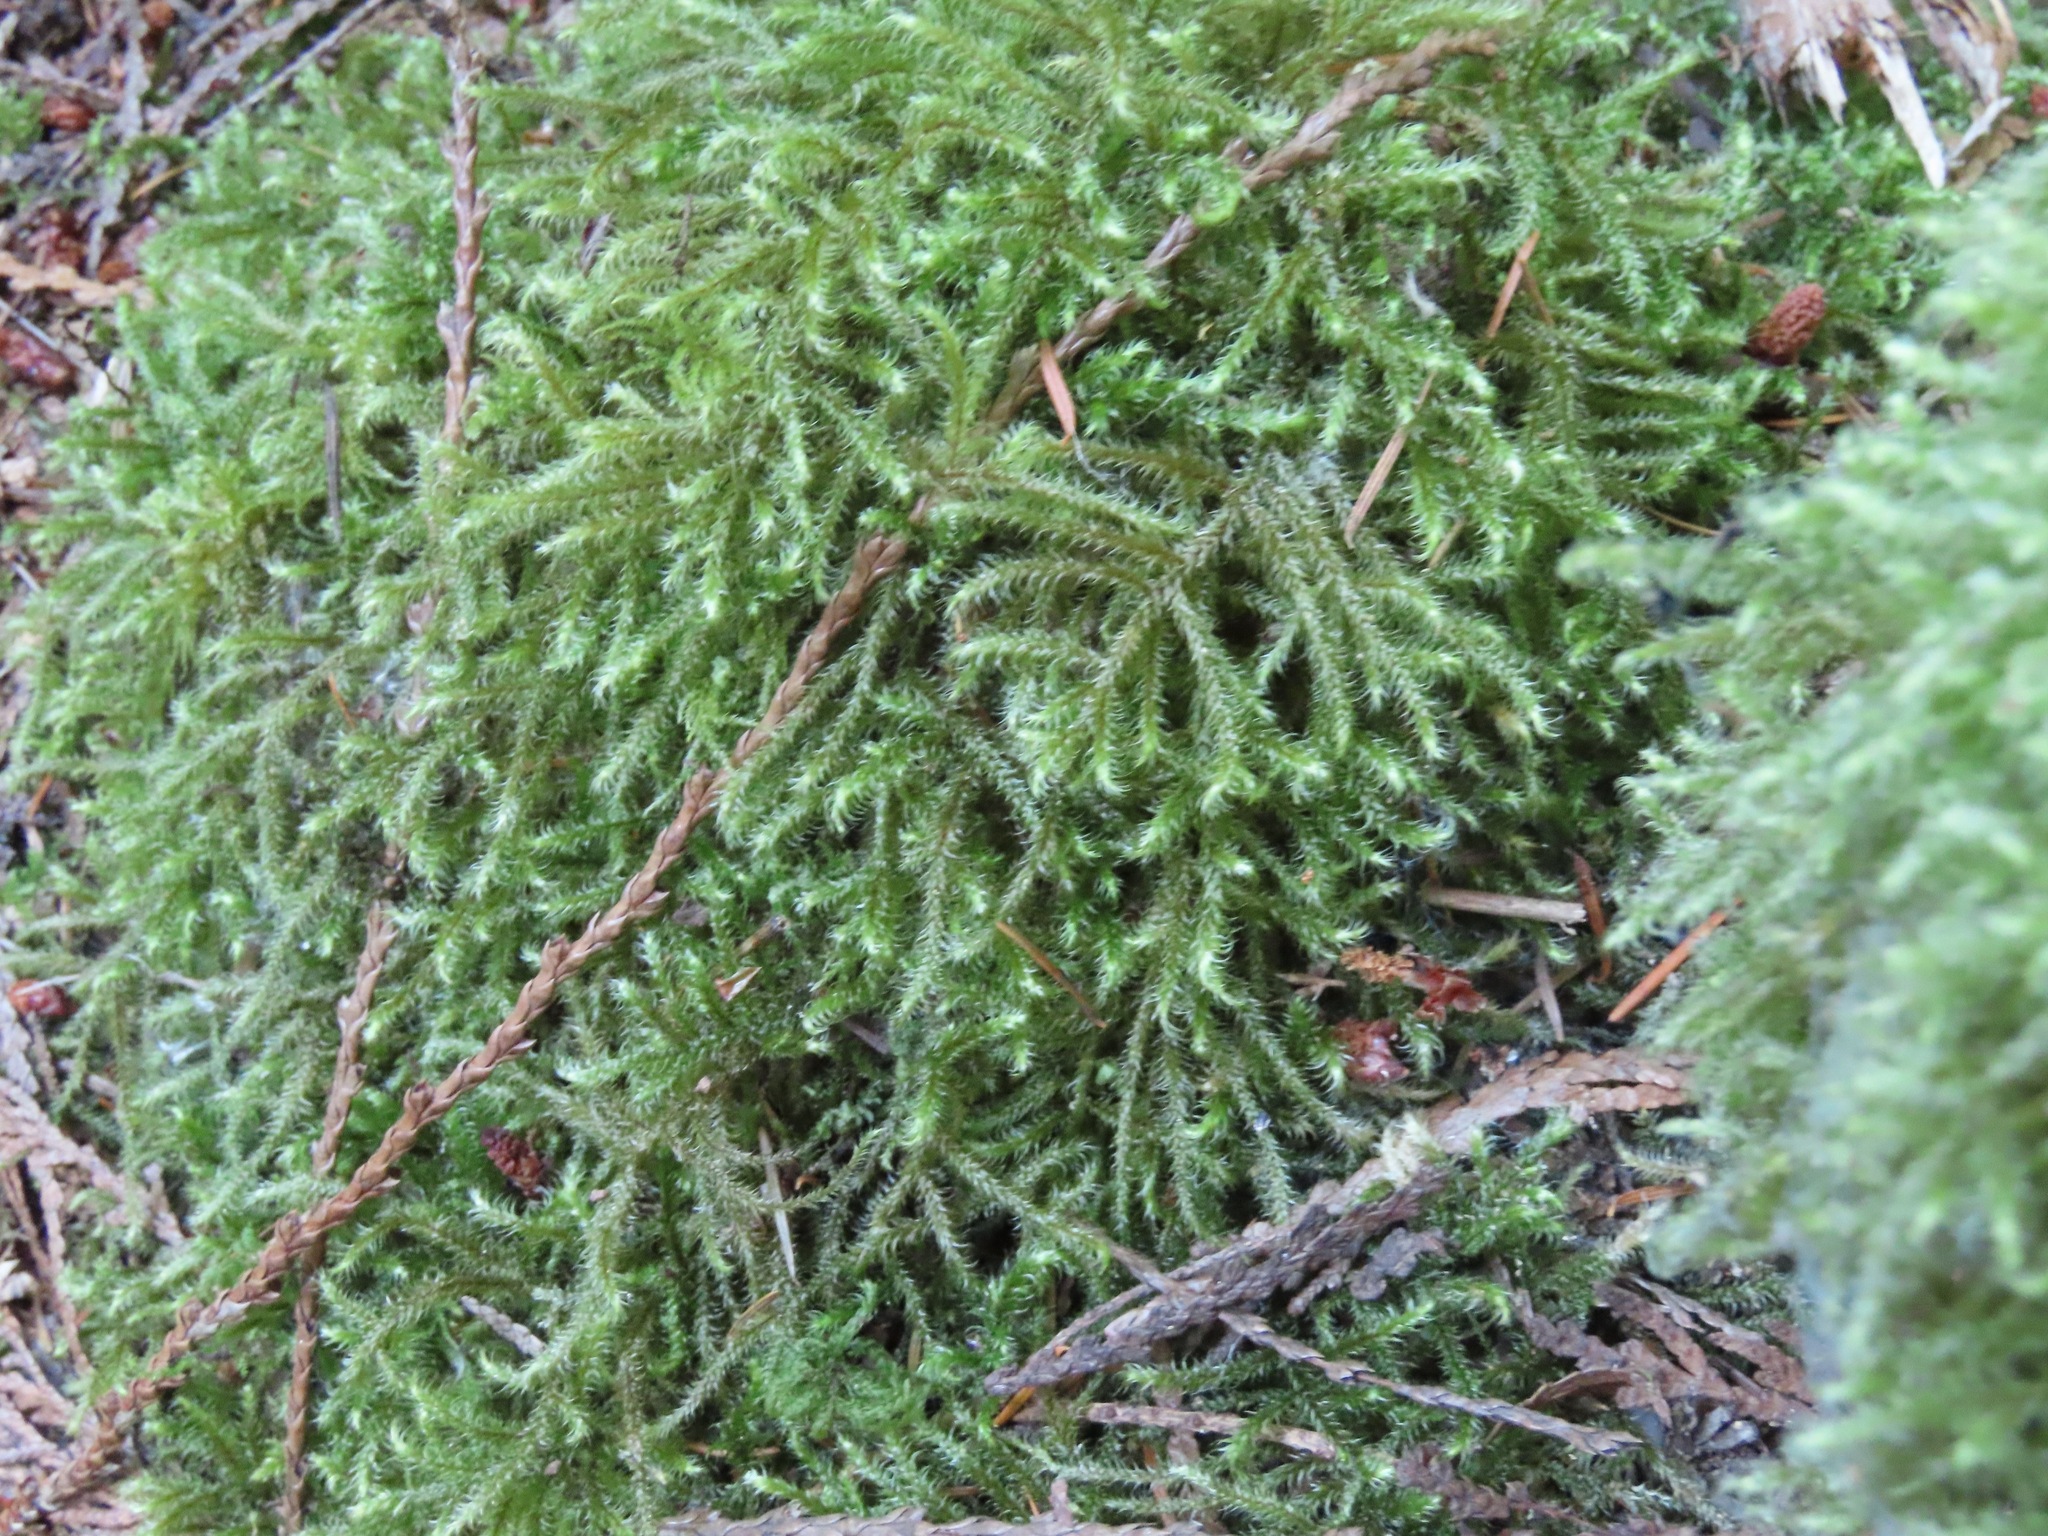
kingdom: Plantae
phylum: Bryophyta
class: Bryopsida
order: Hypnales
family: Hylocomiaceae
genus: Rhytidiadelphus
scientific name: Rhytidiadelphus loreus
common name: Lanky moss
